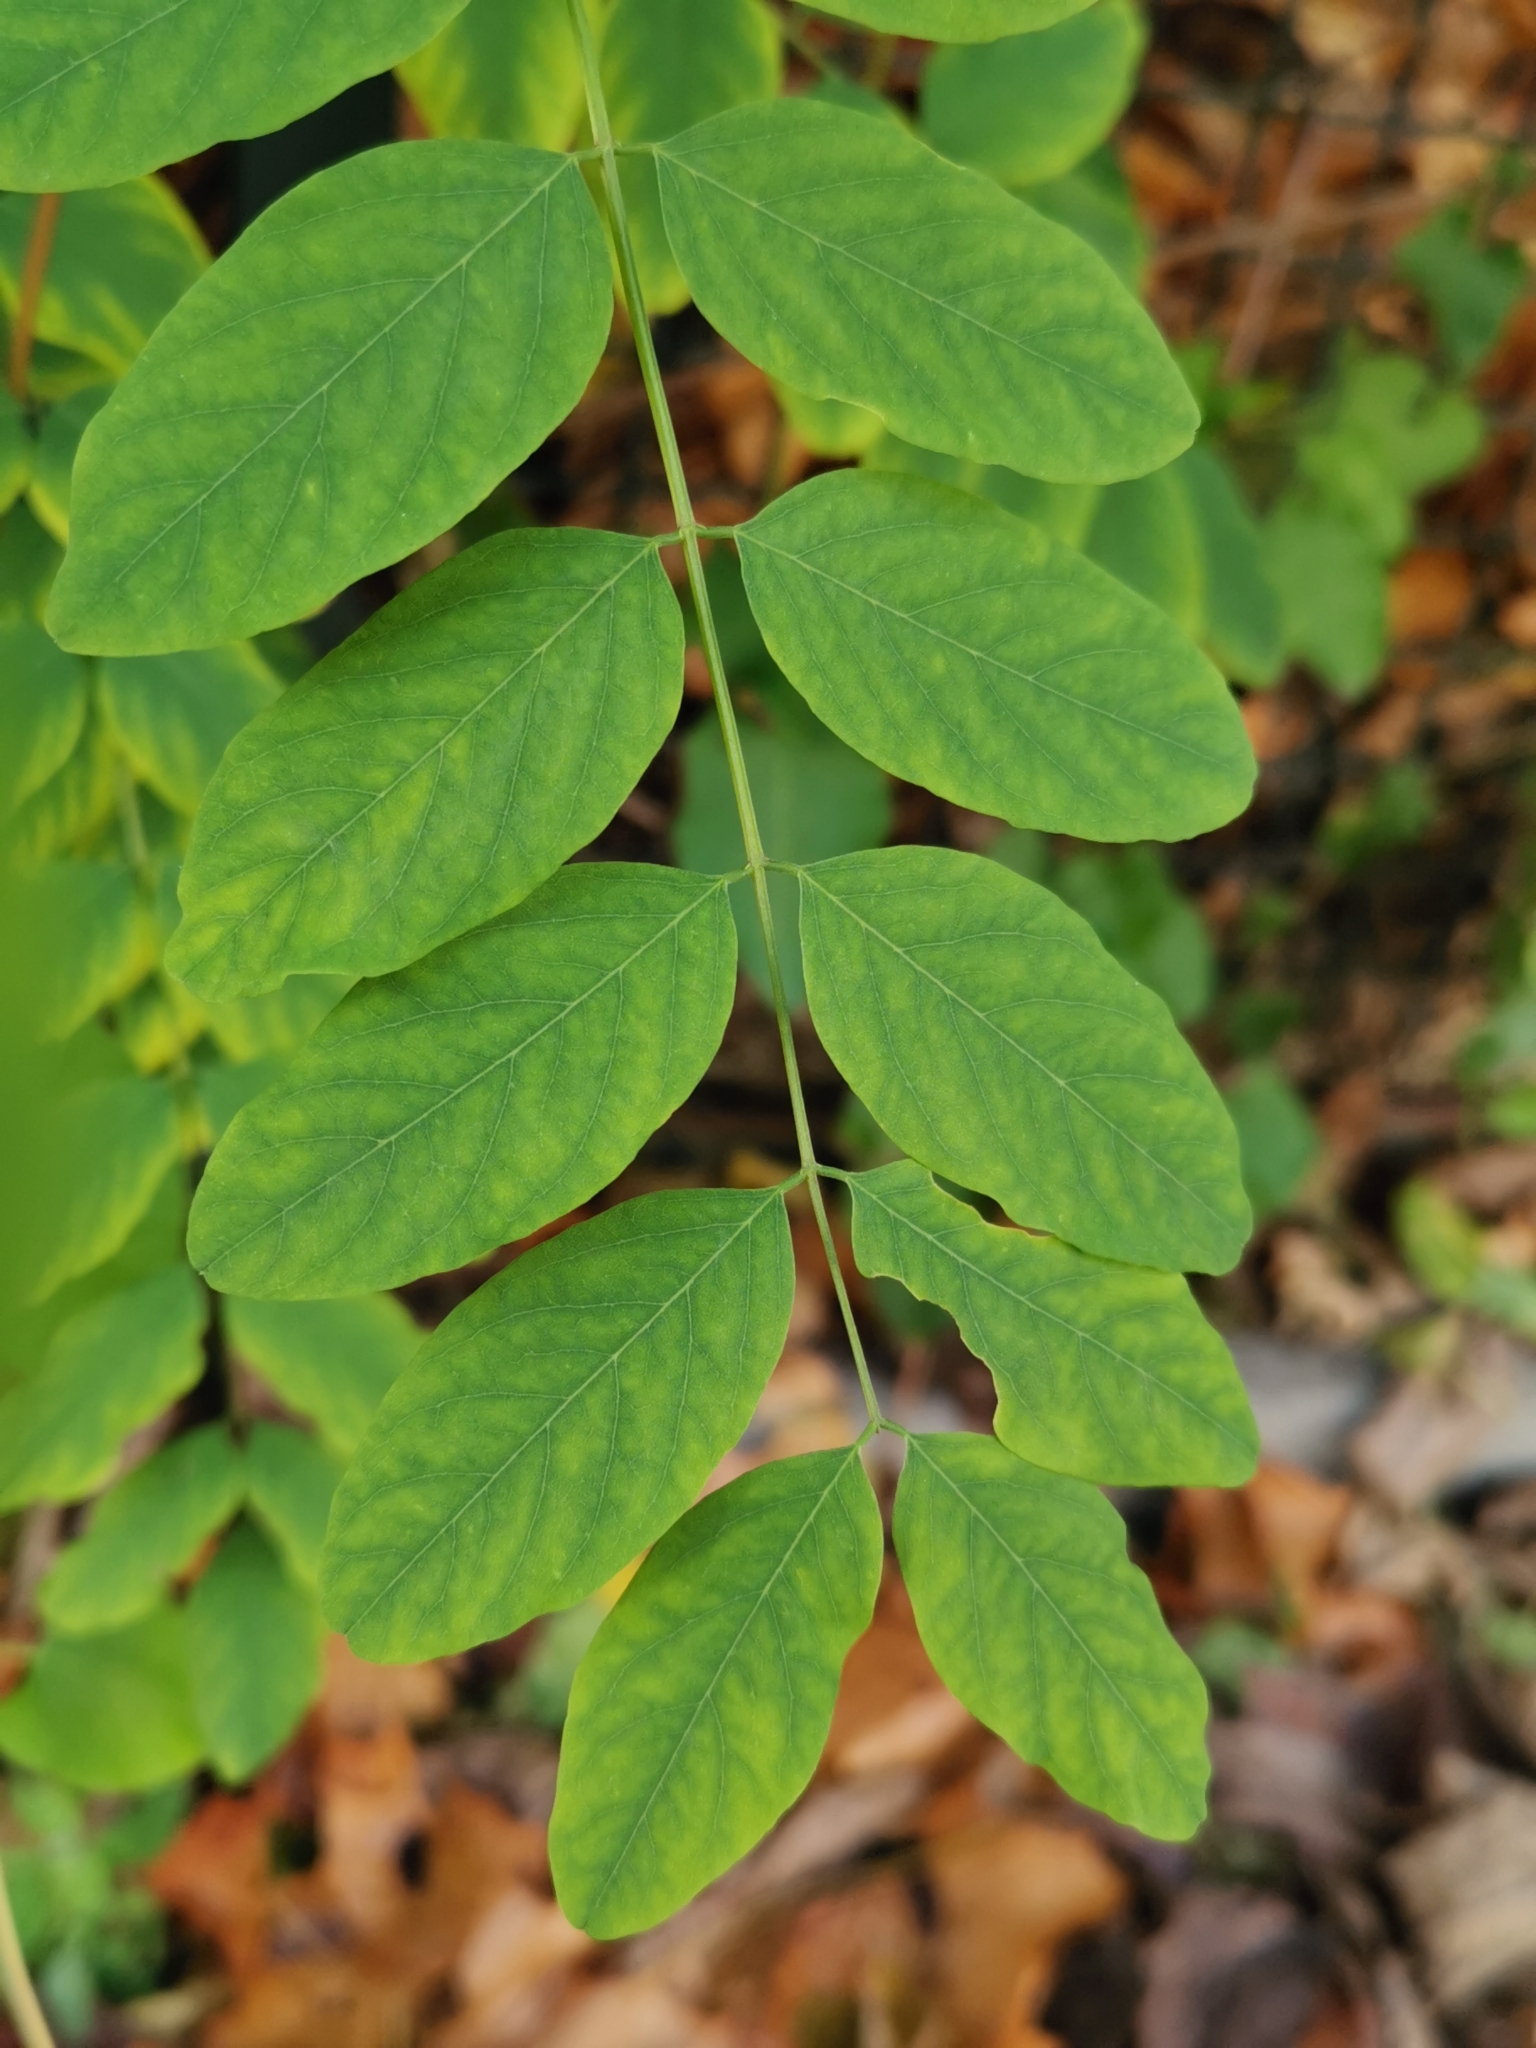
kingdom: Plantae
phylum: Tracheophyta
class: Magnoliopsida
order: Fabales
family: Fabaceae
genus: Robinia
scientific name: Robinia pseudoacacia
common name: Black locust
